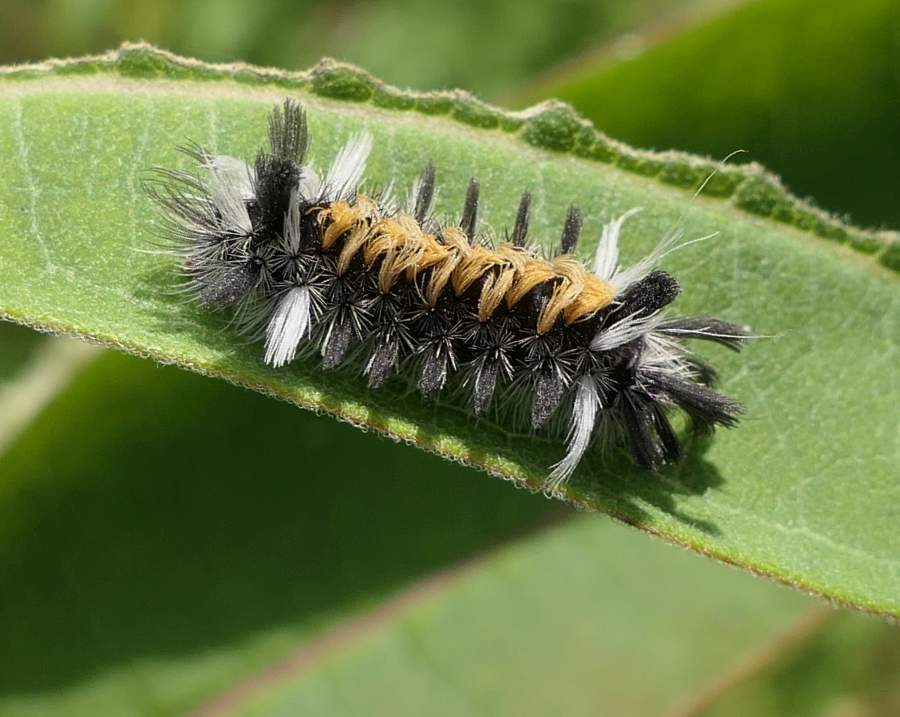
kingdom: Animalia
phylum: Arthropoda
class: Insecta
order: Lepidoptera
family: Erebidae
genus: Euchaetes
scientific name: Euchaetes egle
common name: Milkweed tussock moth
